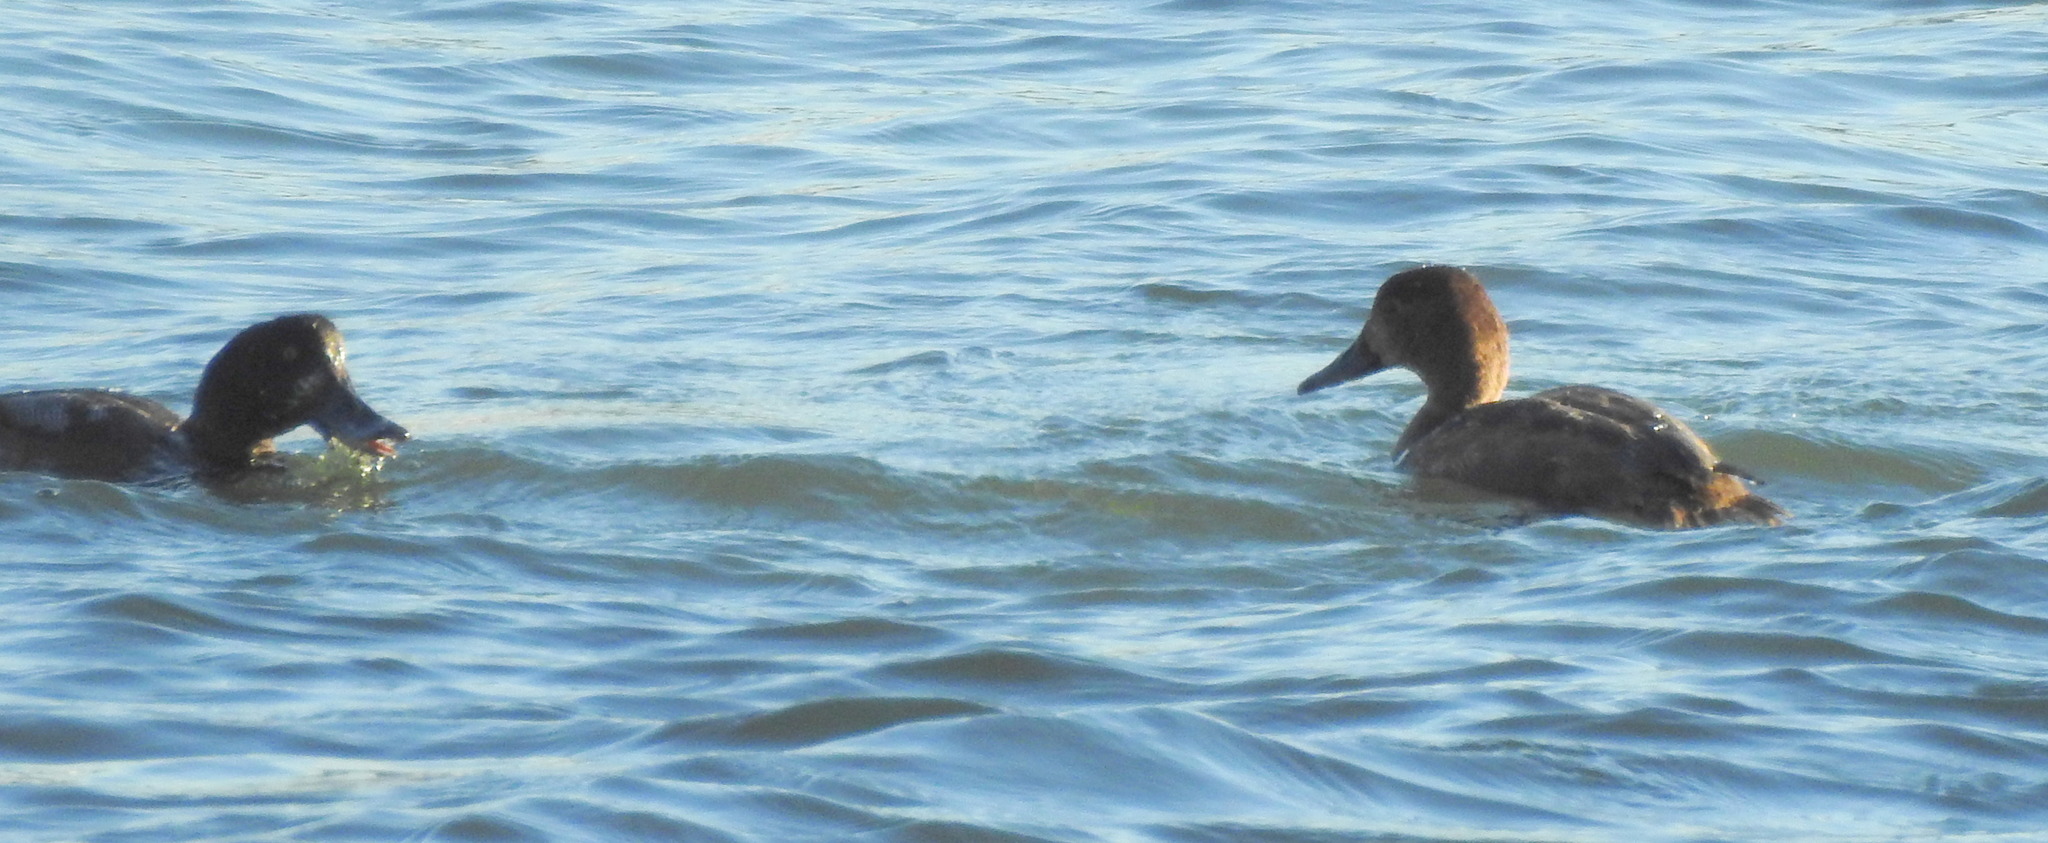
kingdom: Animalia
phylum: Chordata
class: Aves
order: Anseriformes
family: Anatidae
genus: Aythya
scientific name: Aythya marila
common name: Greater scaup
